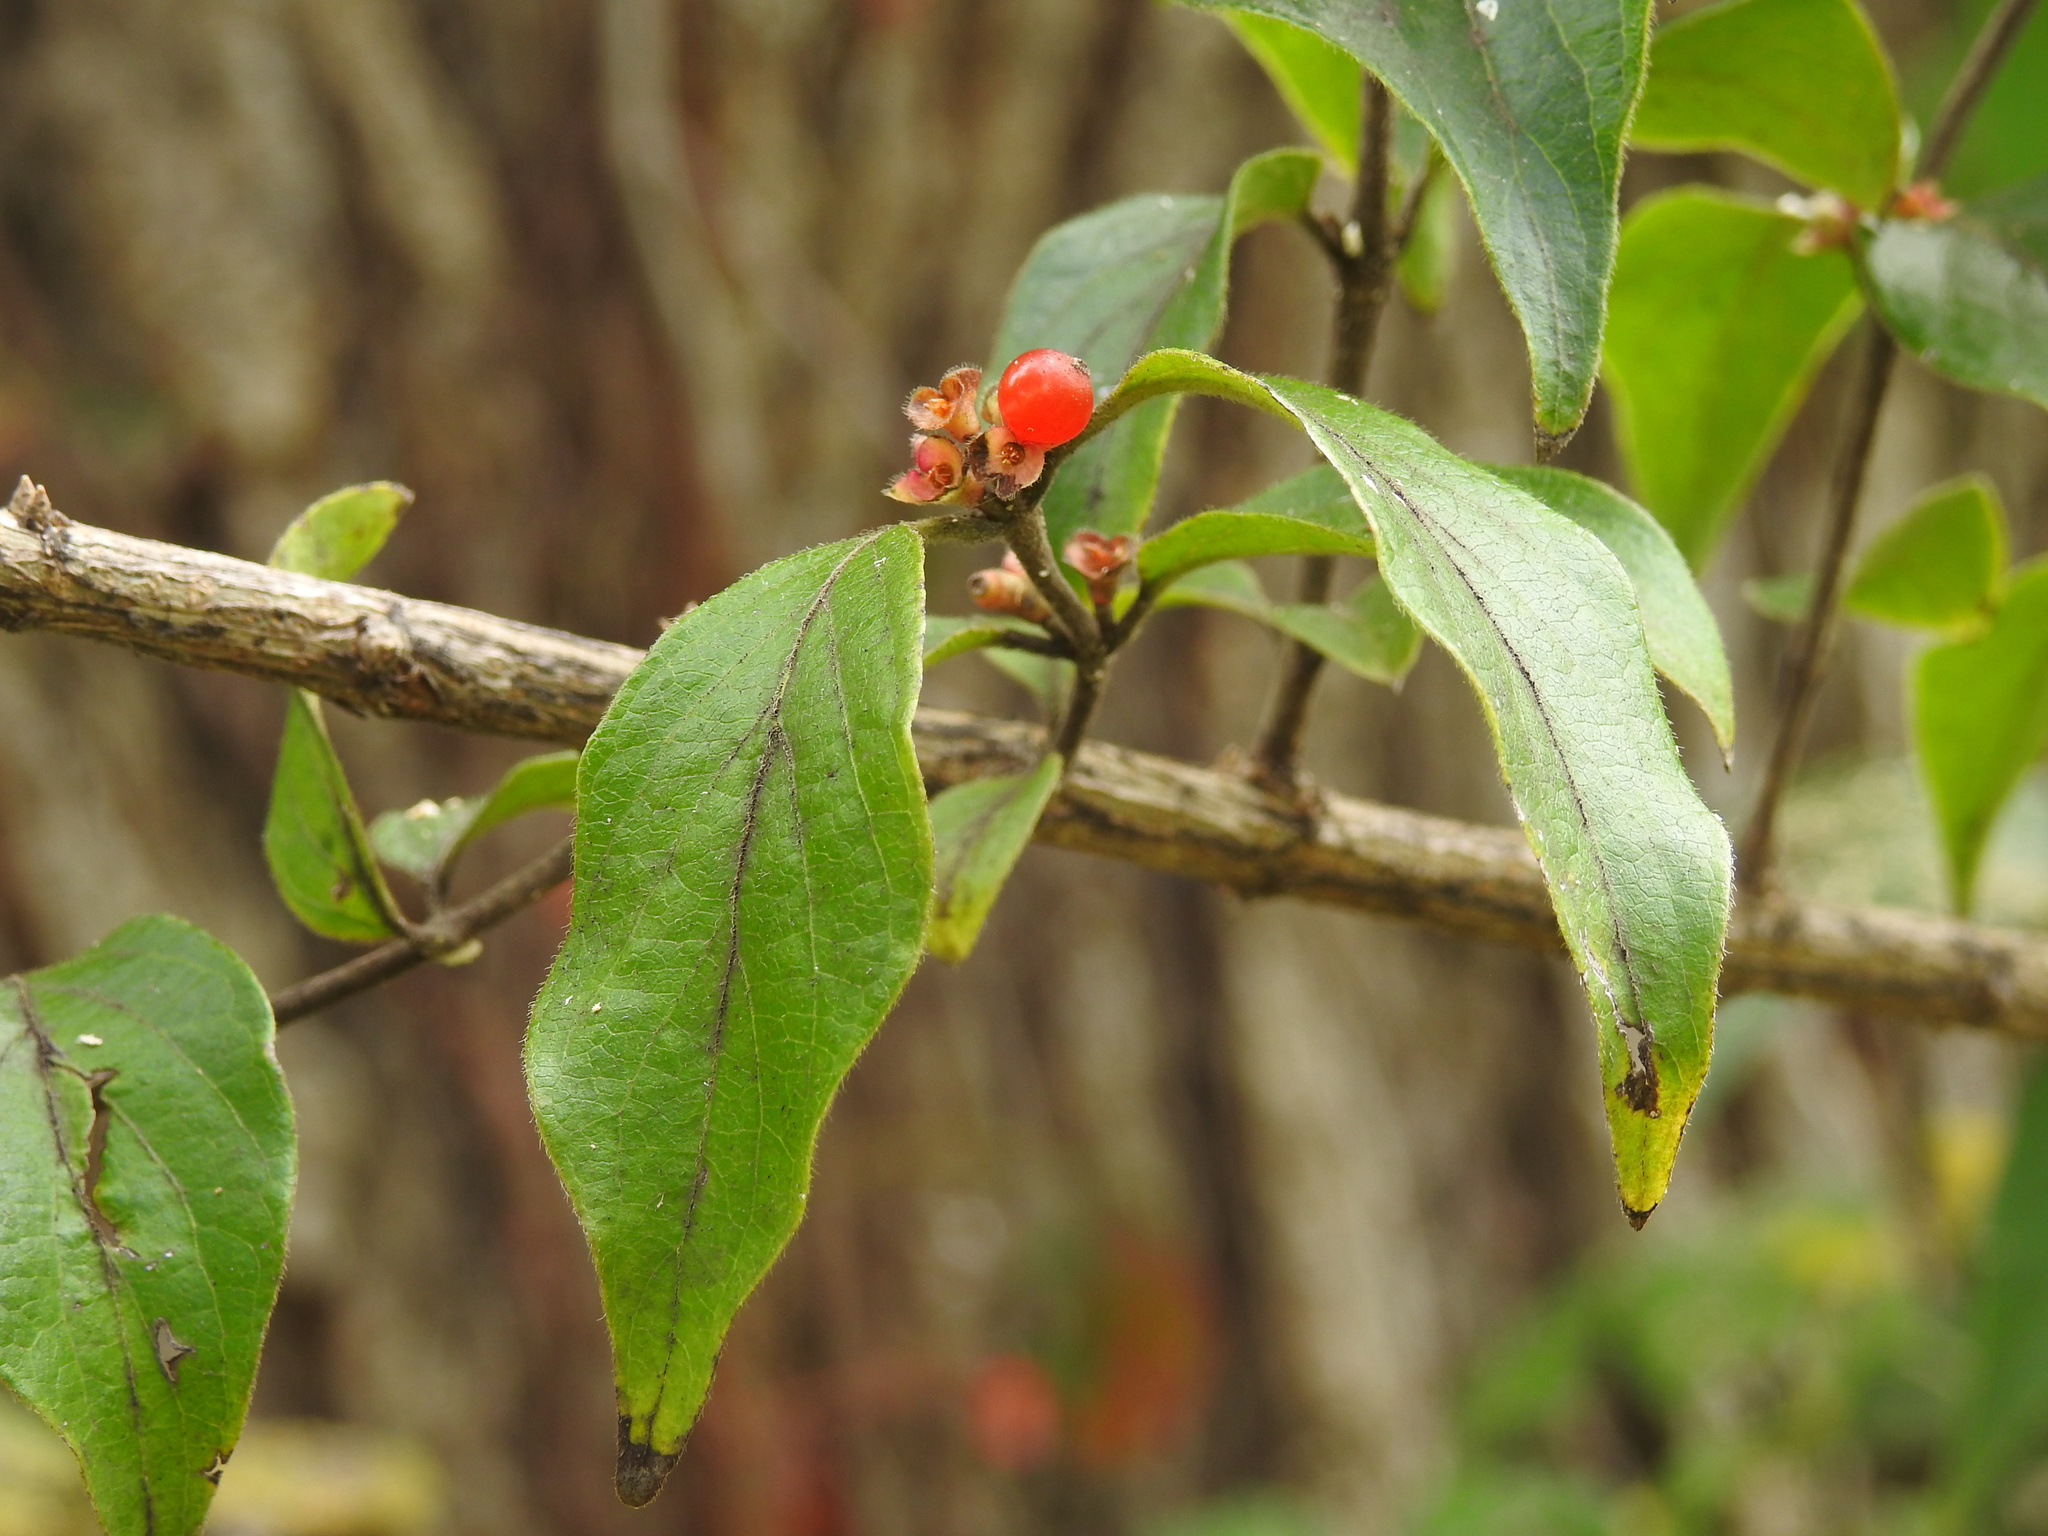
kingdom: Plantae
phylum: Tracheophyta
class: Magnoliopsida
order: Dipsacales
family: Caprifoliaceae
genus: Lonicera
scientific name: Lonicera maackii
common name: Amur honeysuckle
